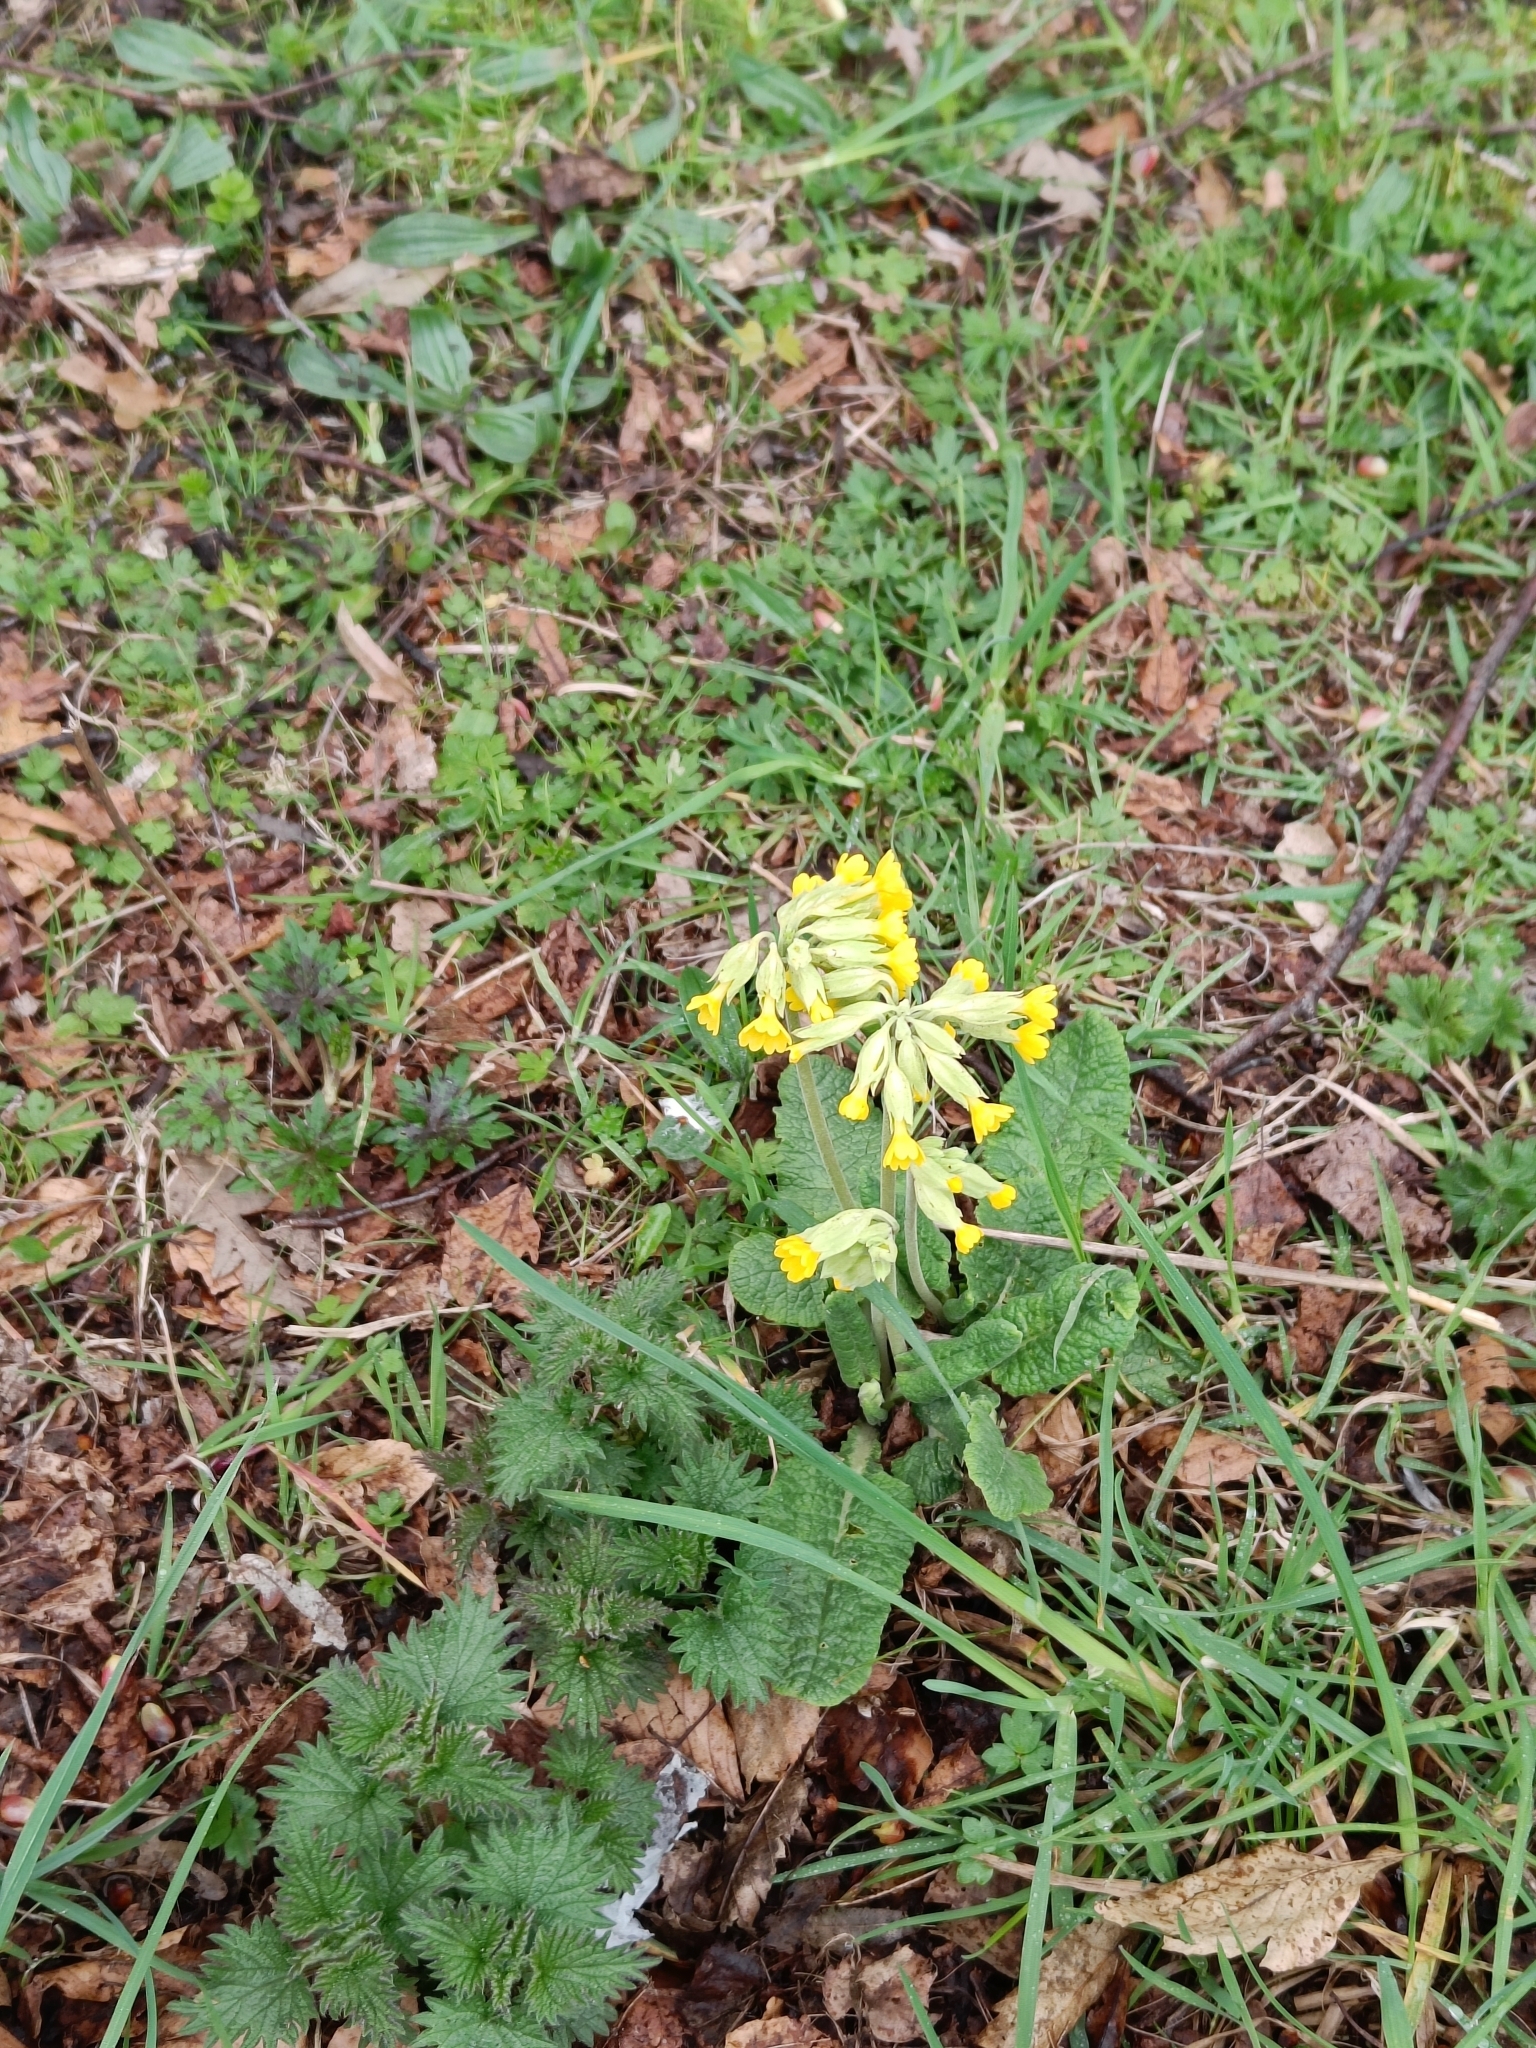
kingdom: Plantae
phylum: Tracheophyta
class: Magnoliopsida
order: Ericales
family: Primulaceae
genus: Primula
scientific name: Primula veris
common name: Cowslip
